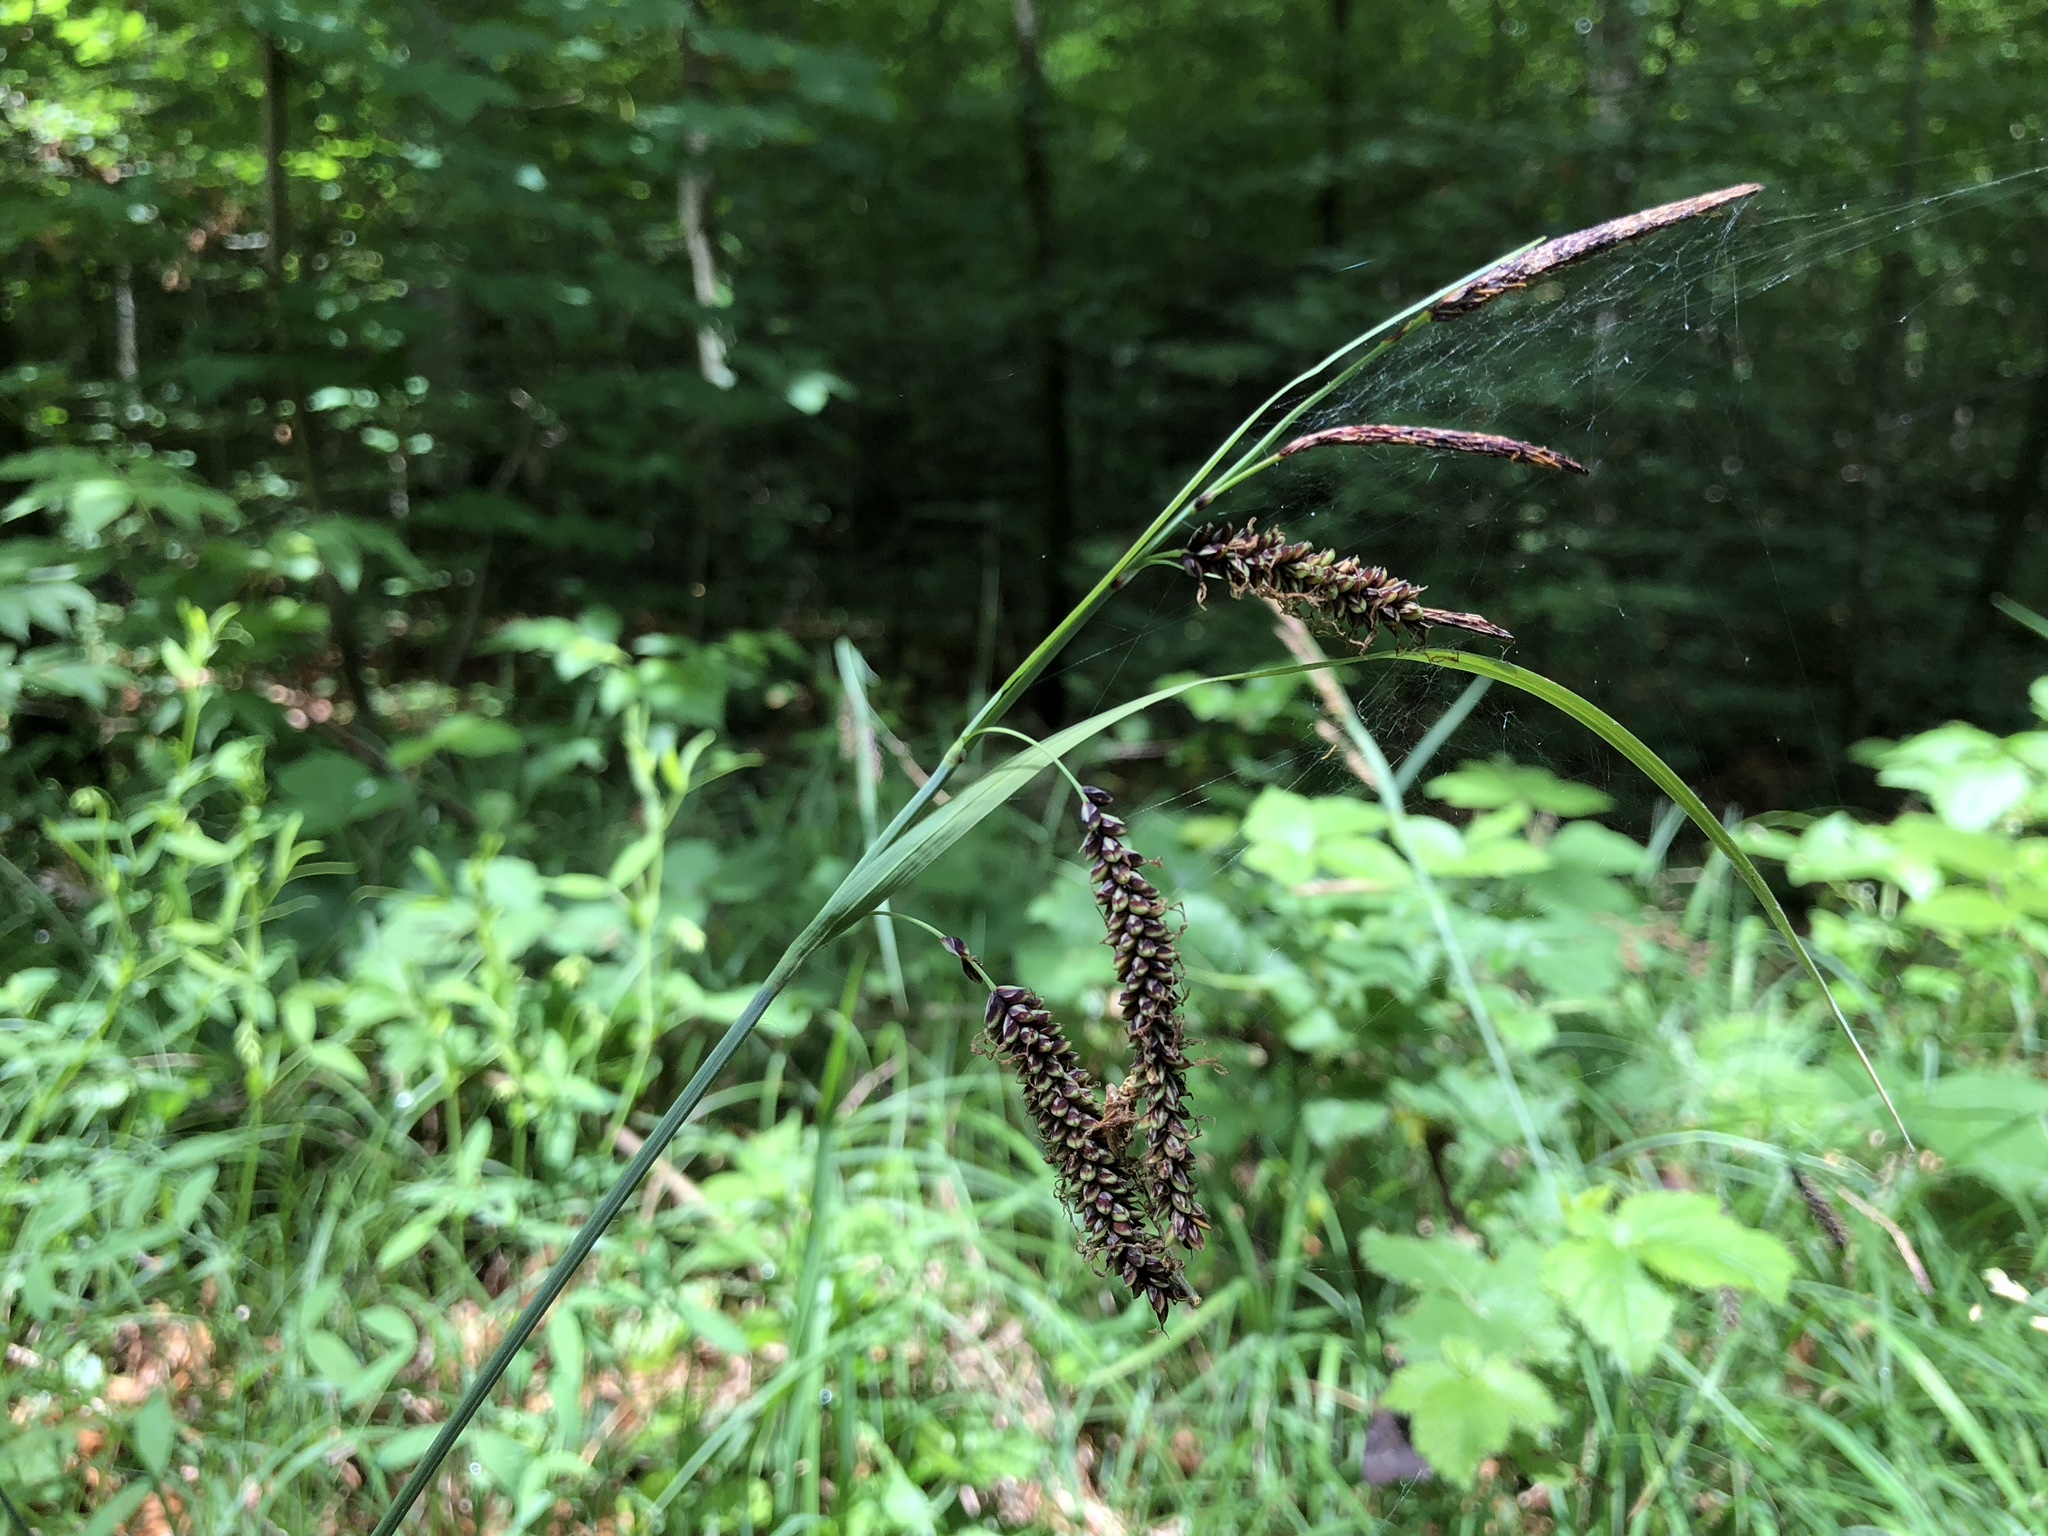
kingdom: Plantae
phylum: Tracheophyta
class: Liliopsida
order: Poales
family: Cyperaceae
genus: Carex
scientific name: Carex flacca
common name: Glaucous sedge
